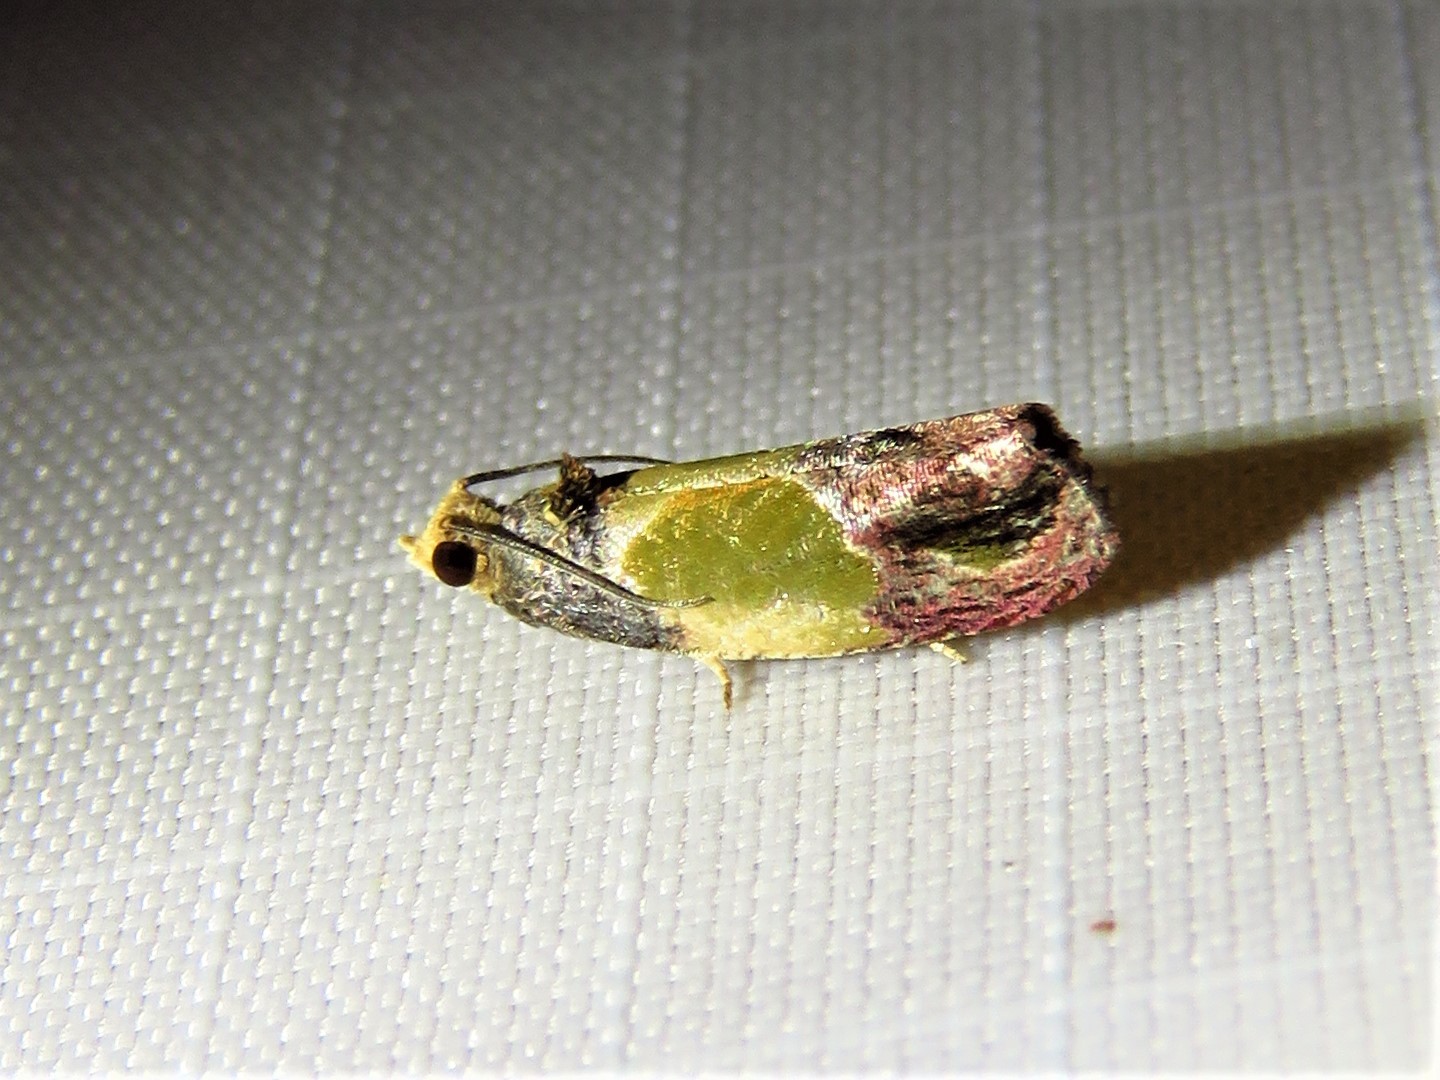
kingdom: Animalia
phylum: Arthropoda
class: Insecta
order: Lepidoptera
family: Tortricidae
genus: Eumarozia
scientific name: Eumarozia malachitana
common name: Sculptured moth
